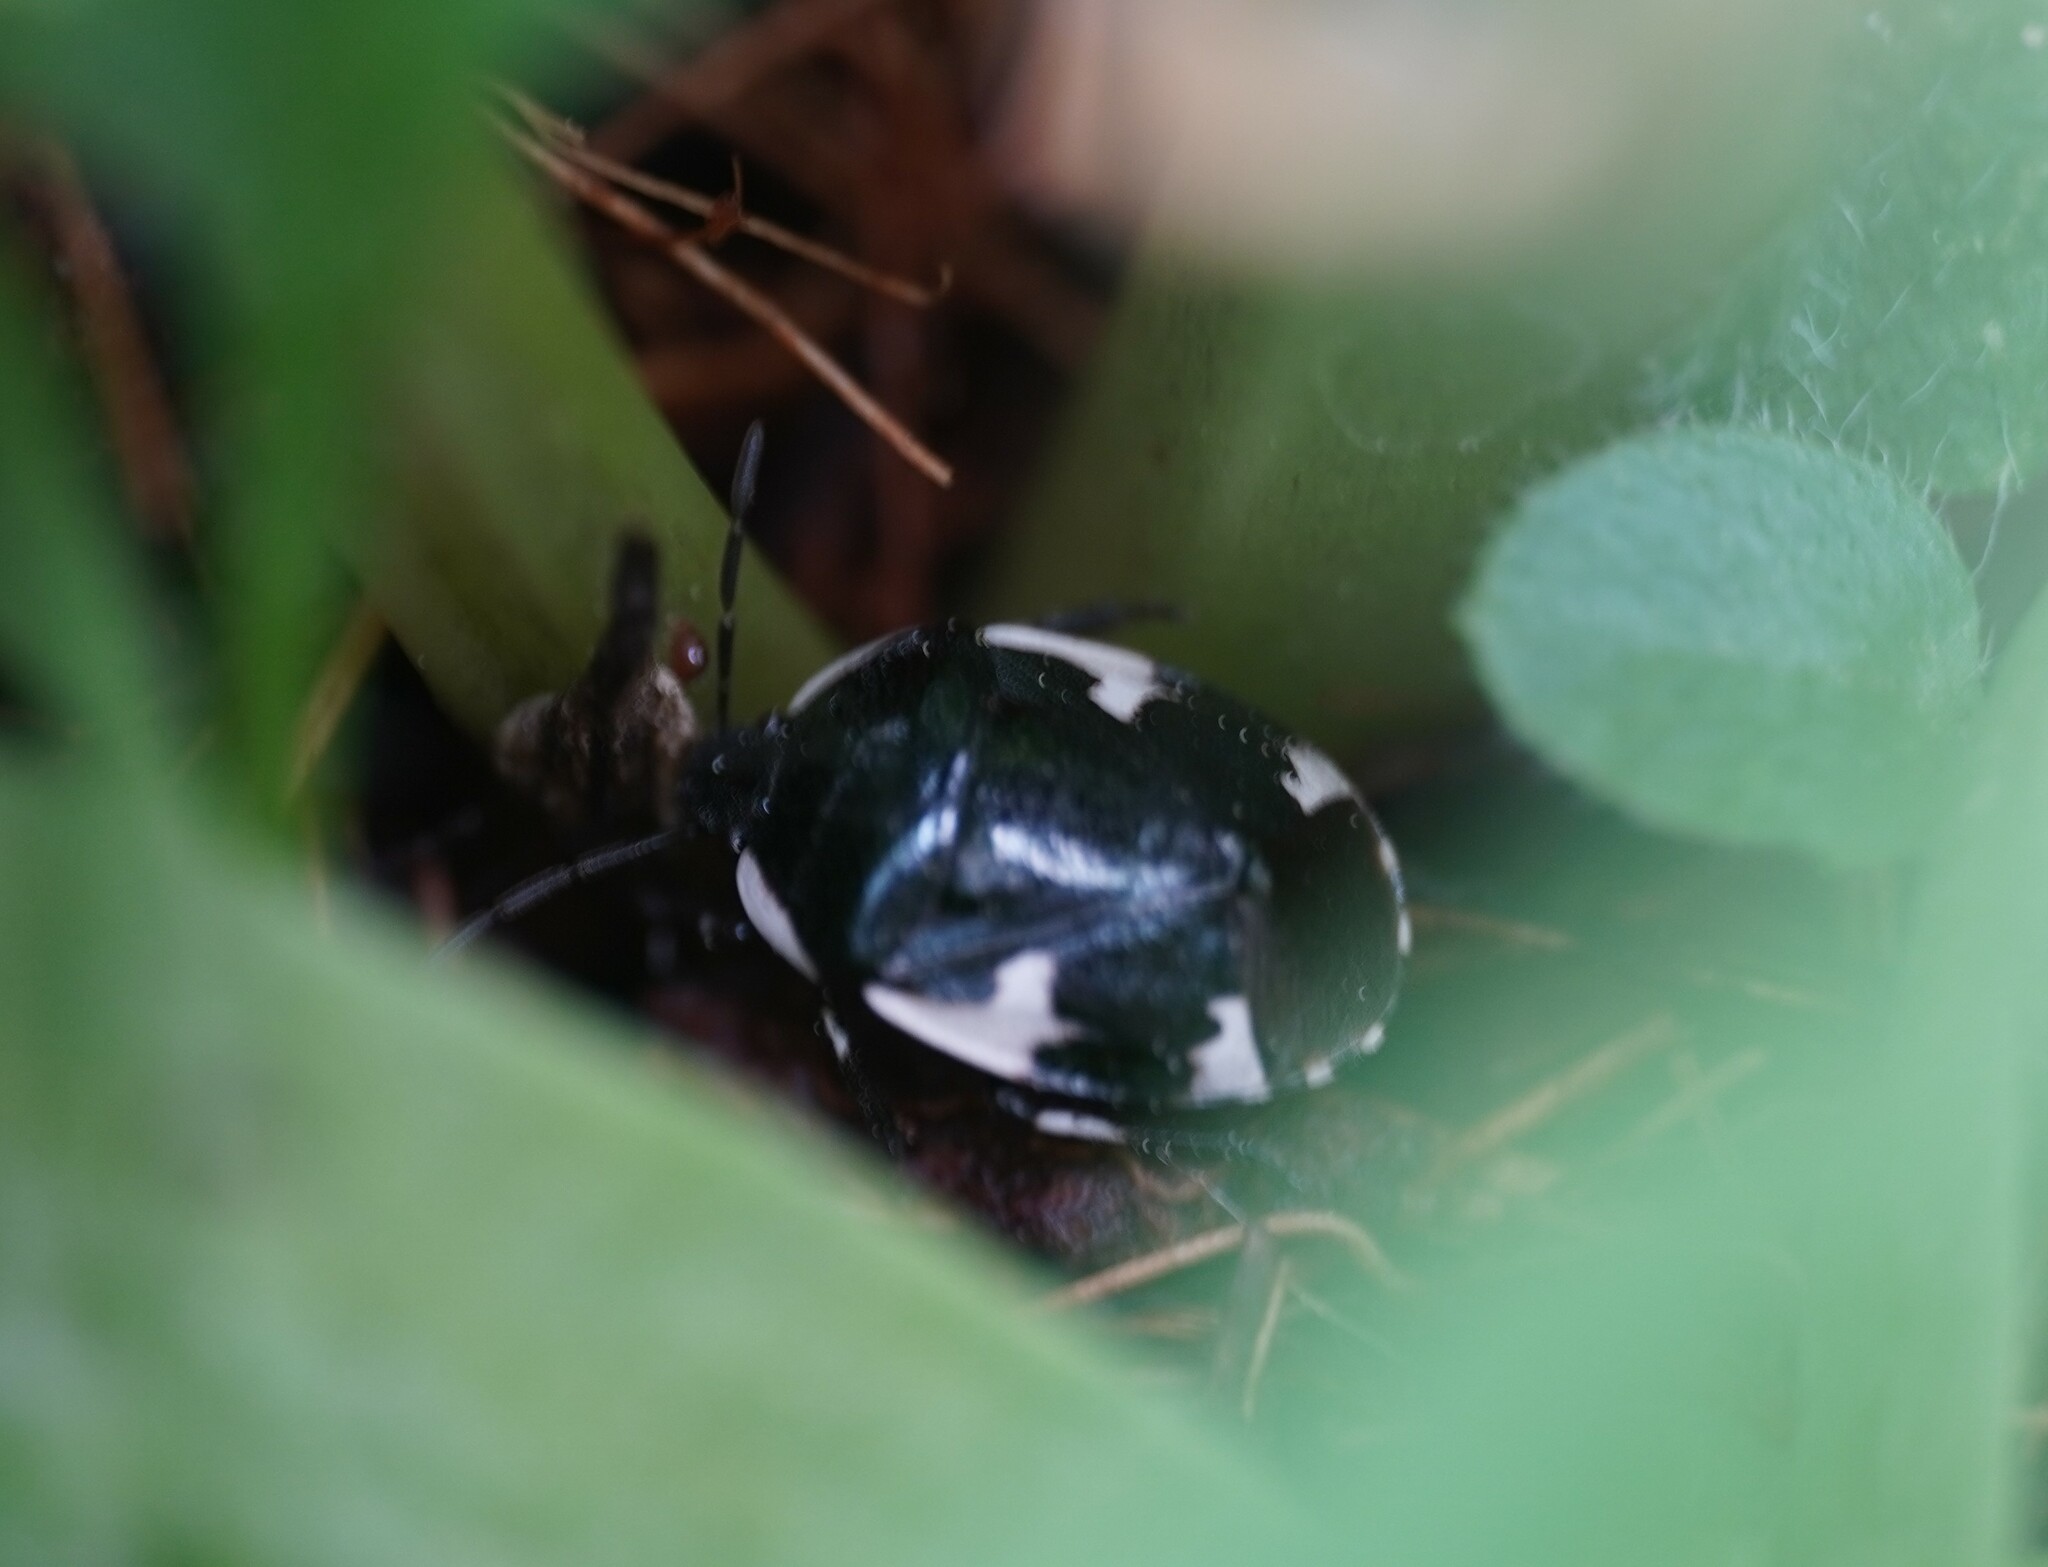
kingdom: Animalia
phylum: Arthropoda
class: Insecta
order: Hemiptera
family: Cydnidae
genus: Tritomegas
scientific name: Tritomegas sexmaculatus
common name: Rambur's pied shieldbug
